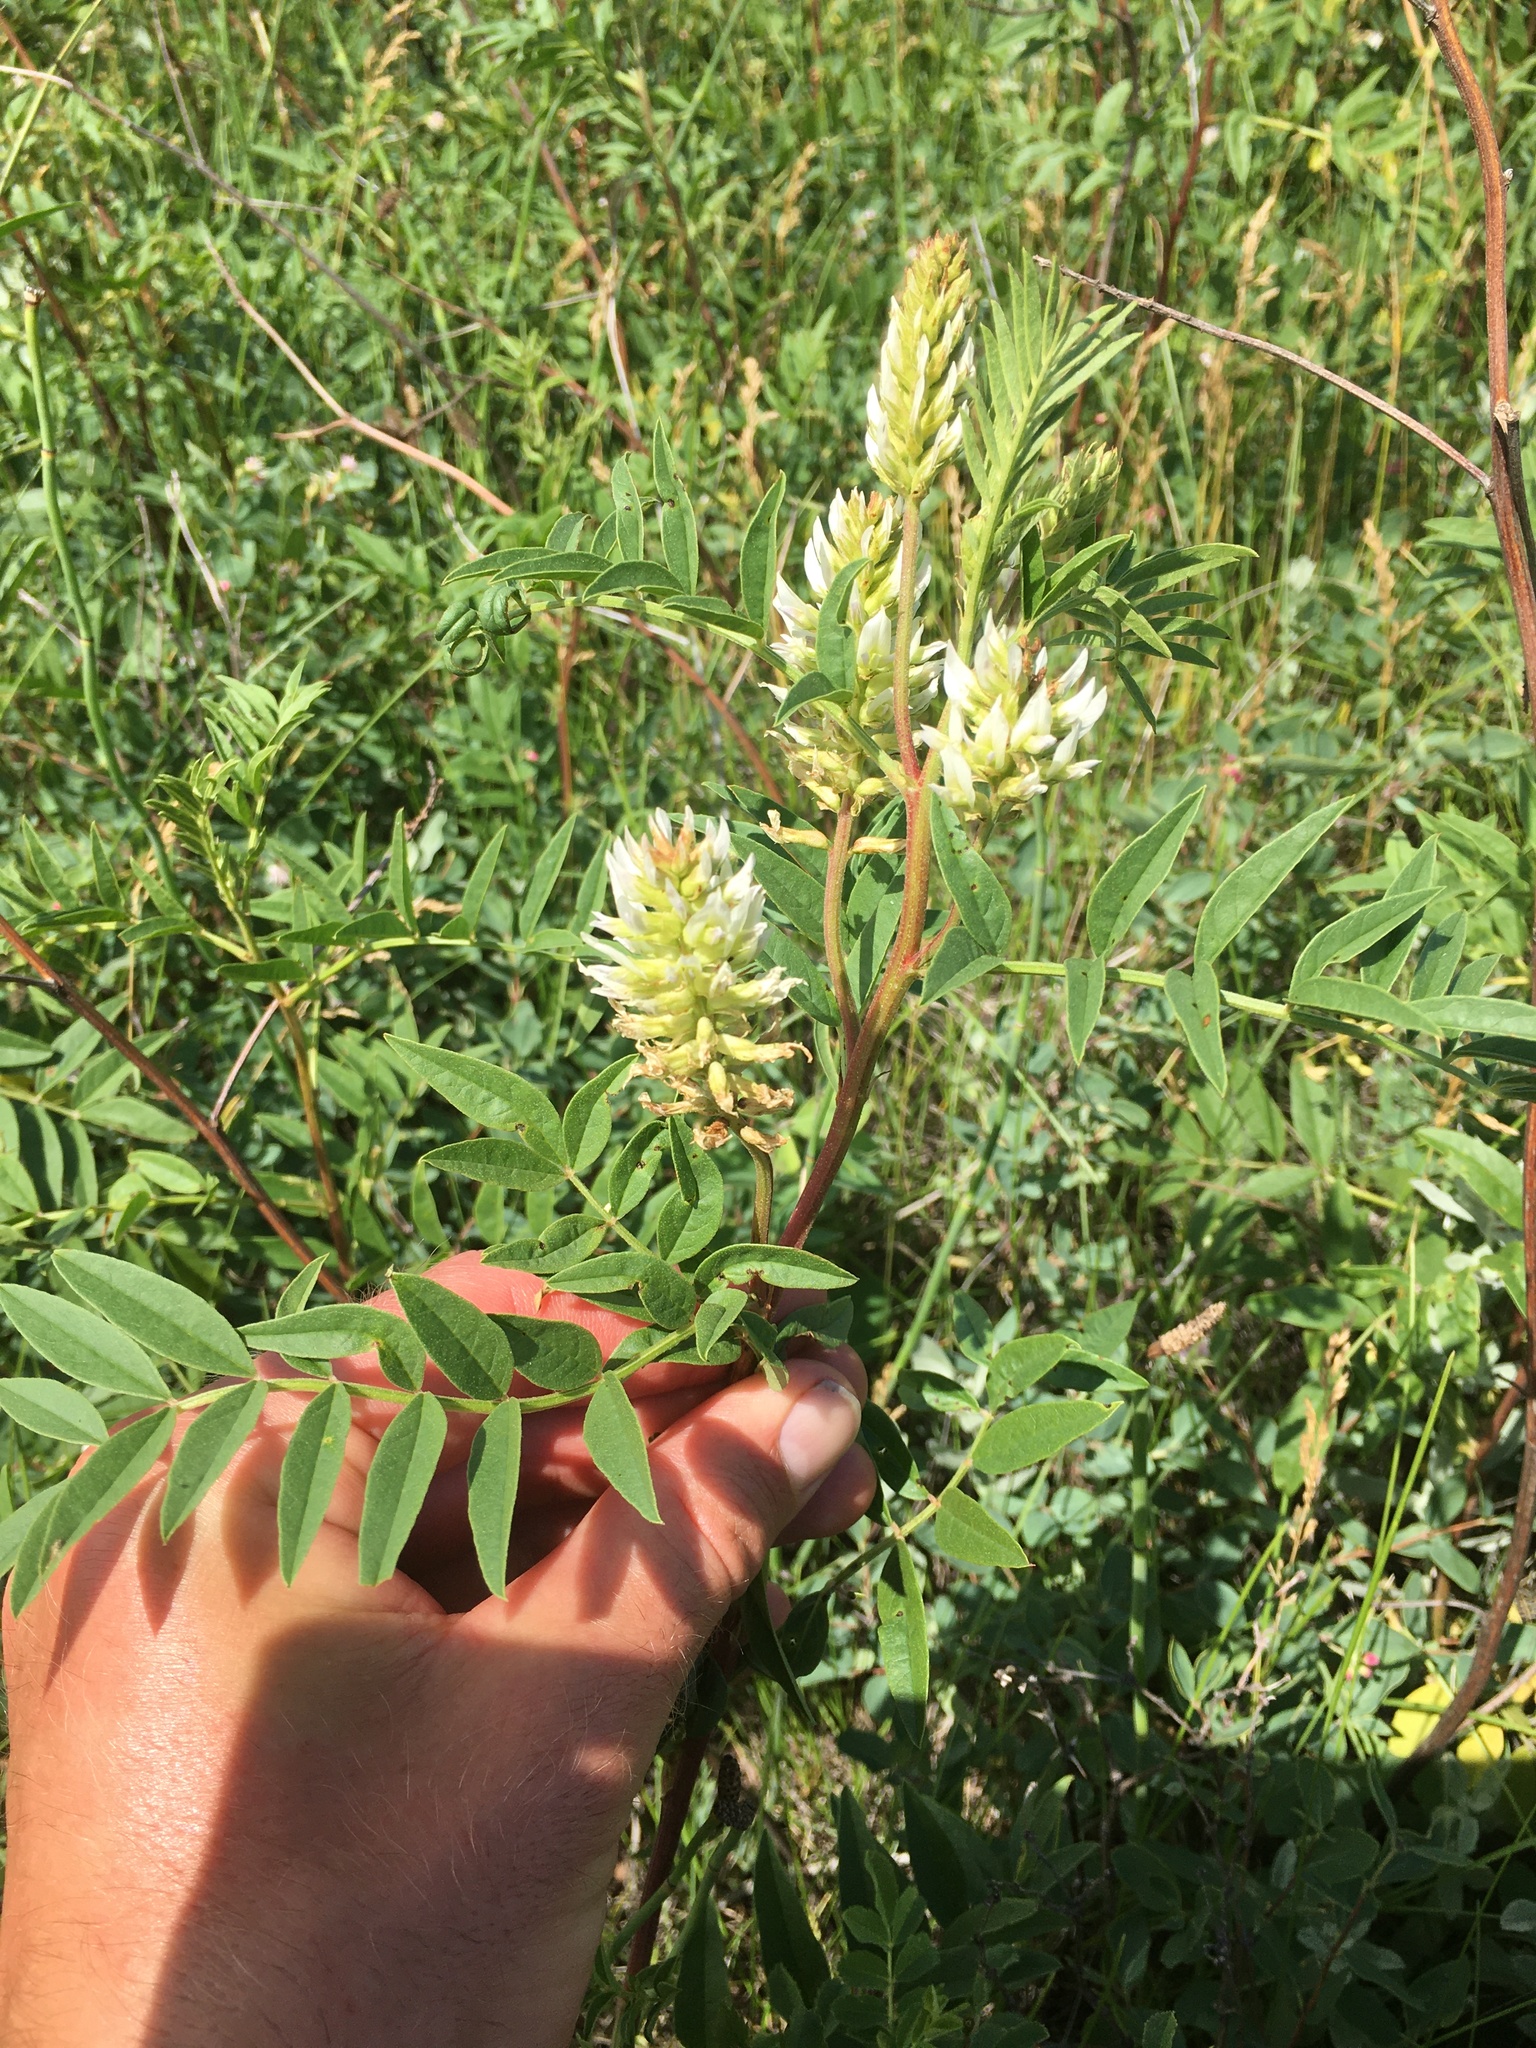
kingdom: Plantae
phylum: Tracheophyta
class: Magnoliopsida
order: Fabales
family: Fabaceae
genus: Glycyrrhiza
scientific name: Glycyrrhiza lepidota
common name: American liquorice
